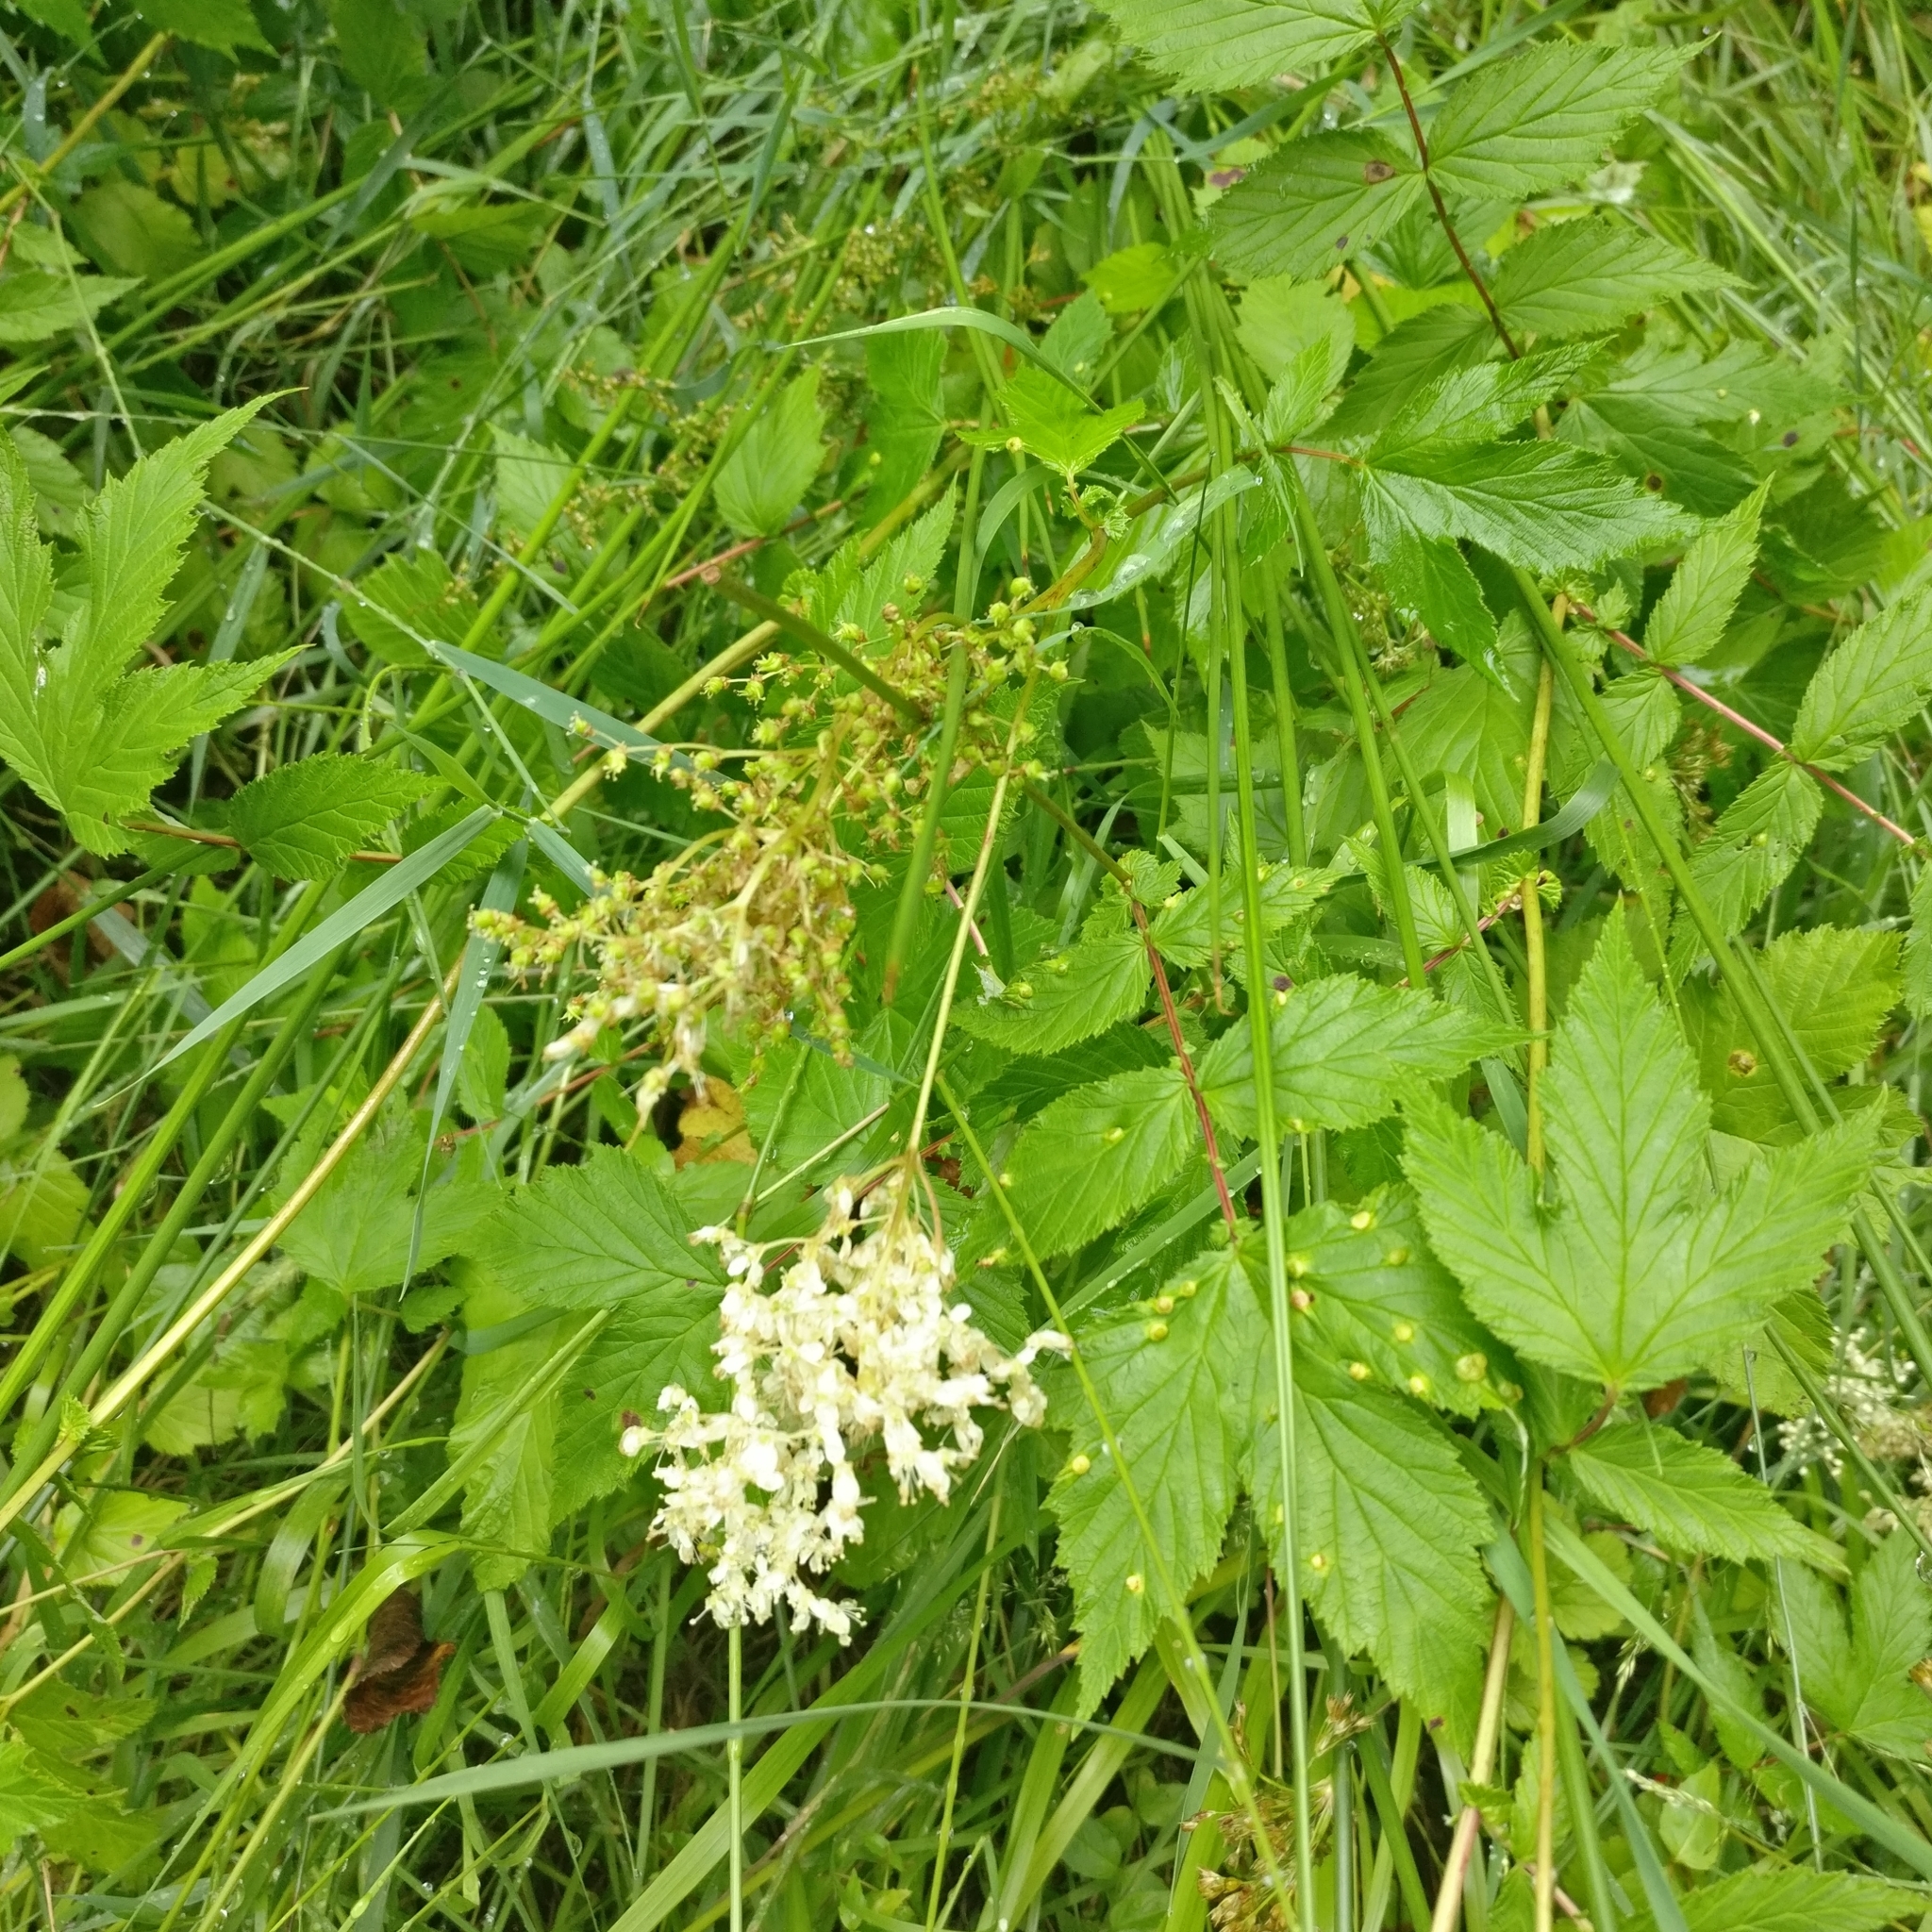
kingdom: Plantae
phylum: Tracheophyta
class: Magnoliopsida
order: Rosales
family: Rosaceae
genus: Filipendula
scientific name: Filipendula ulmaria
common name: Meadowsweet
